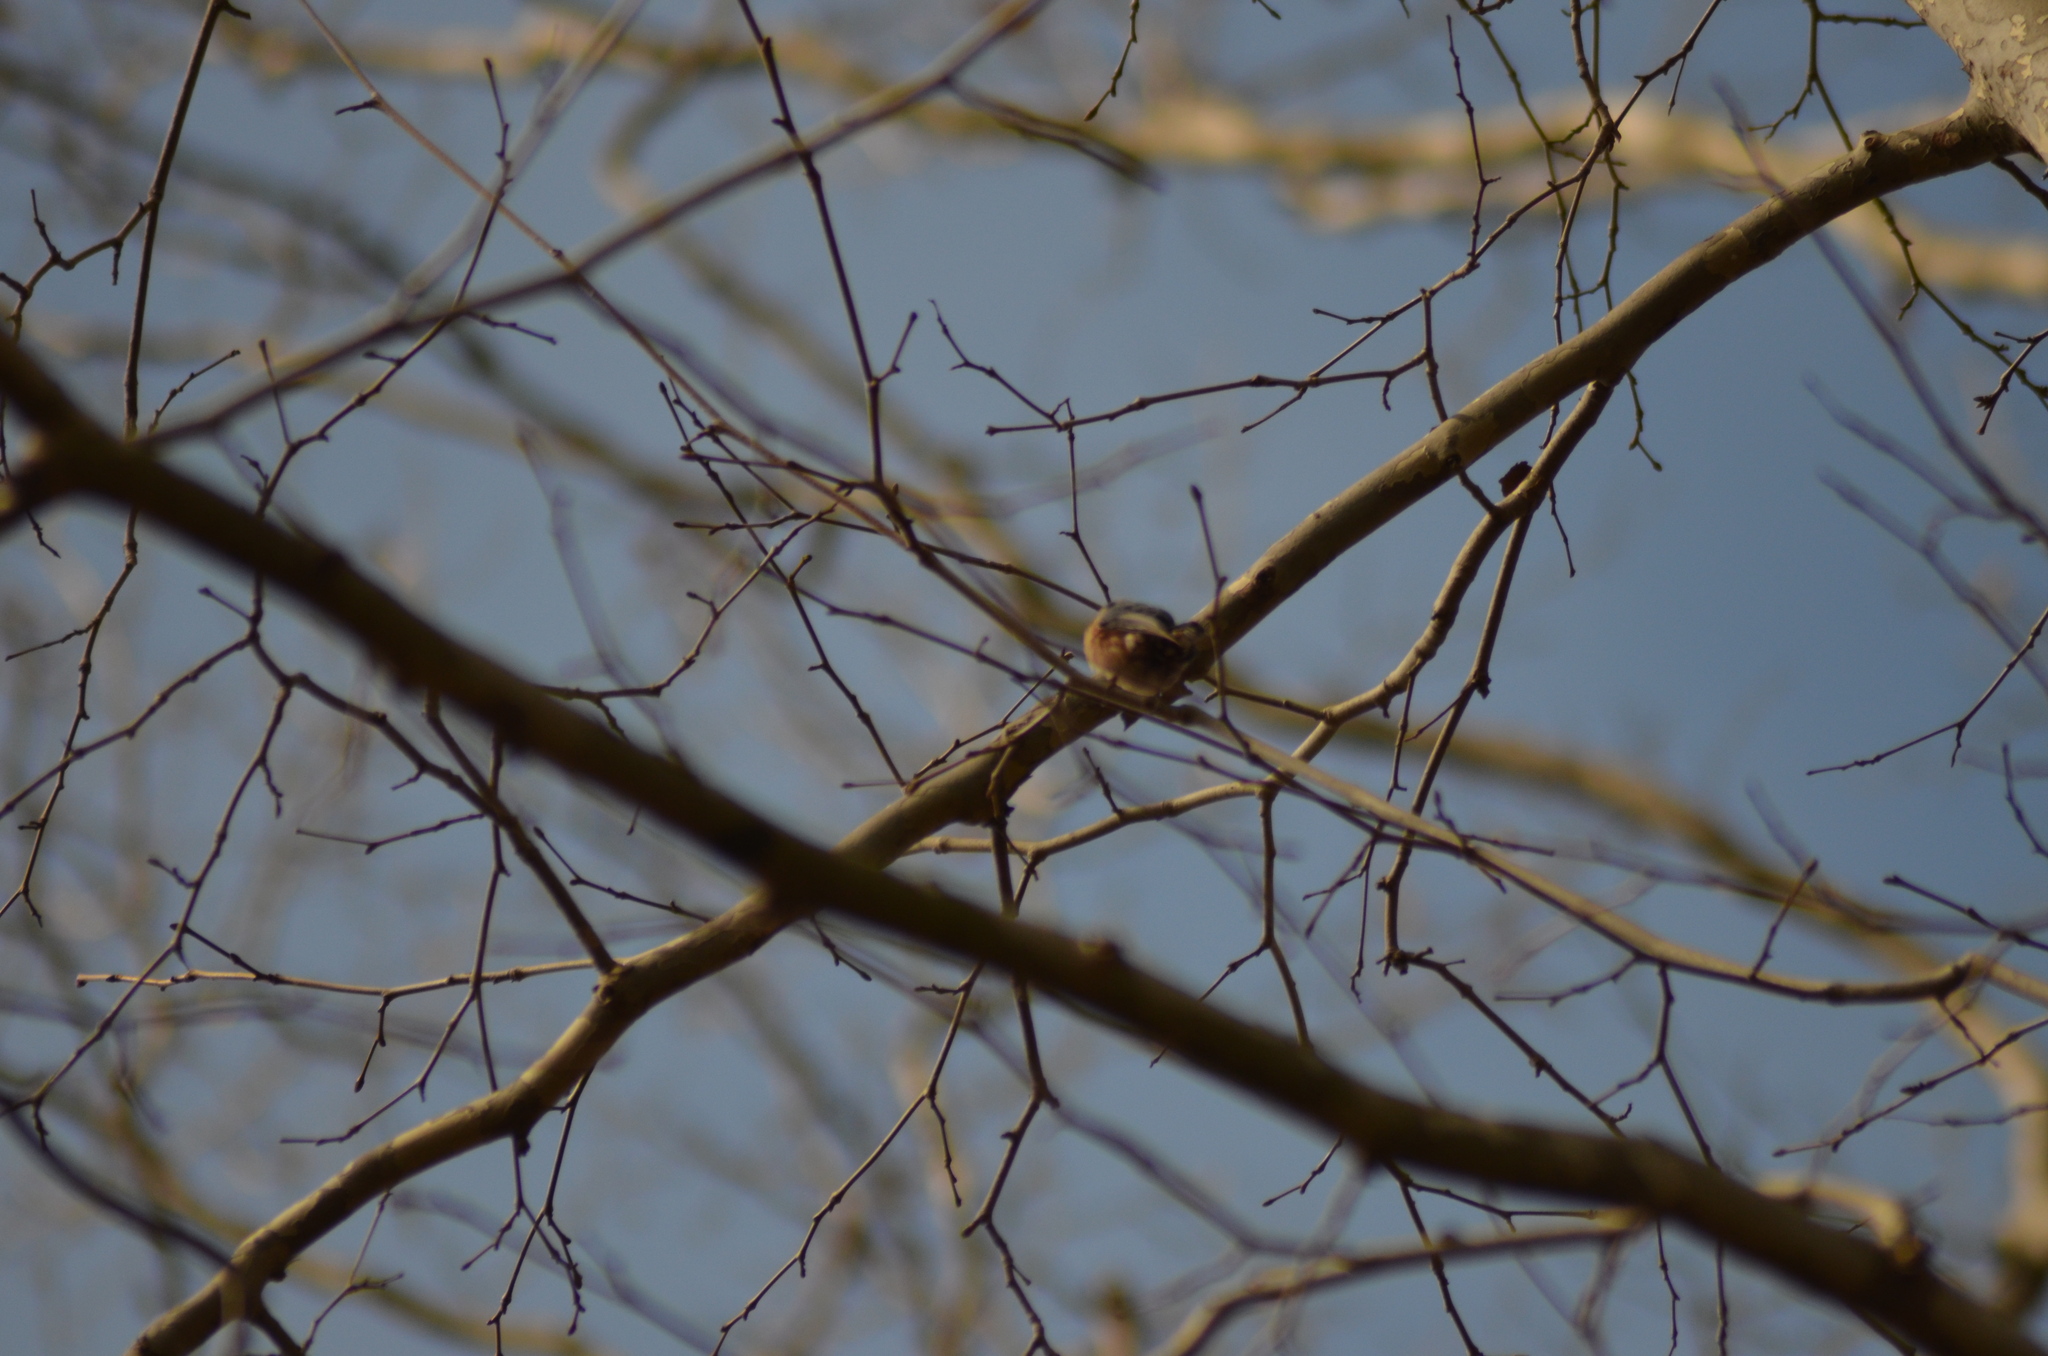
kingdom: Animalia
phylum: Chordata
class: Aves
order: Passeriformes
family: Sittidae
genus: Sitta
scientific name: Sitta europaea
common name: Eurasian nuthatch
